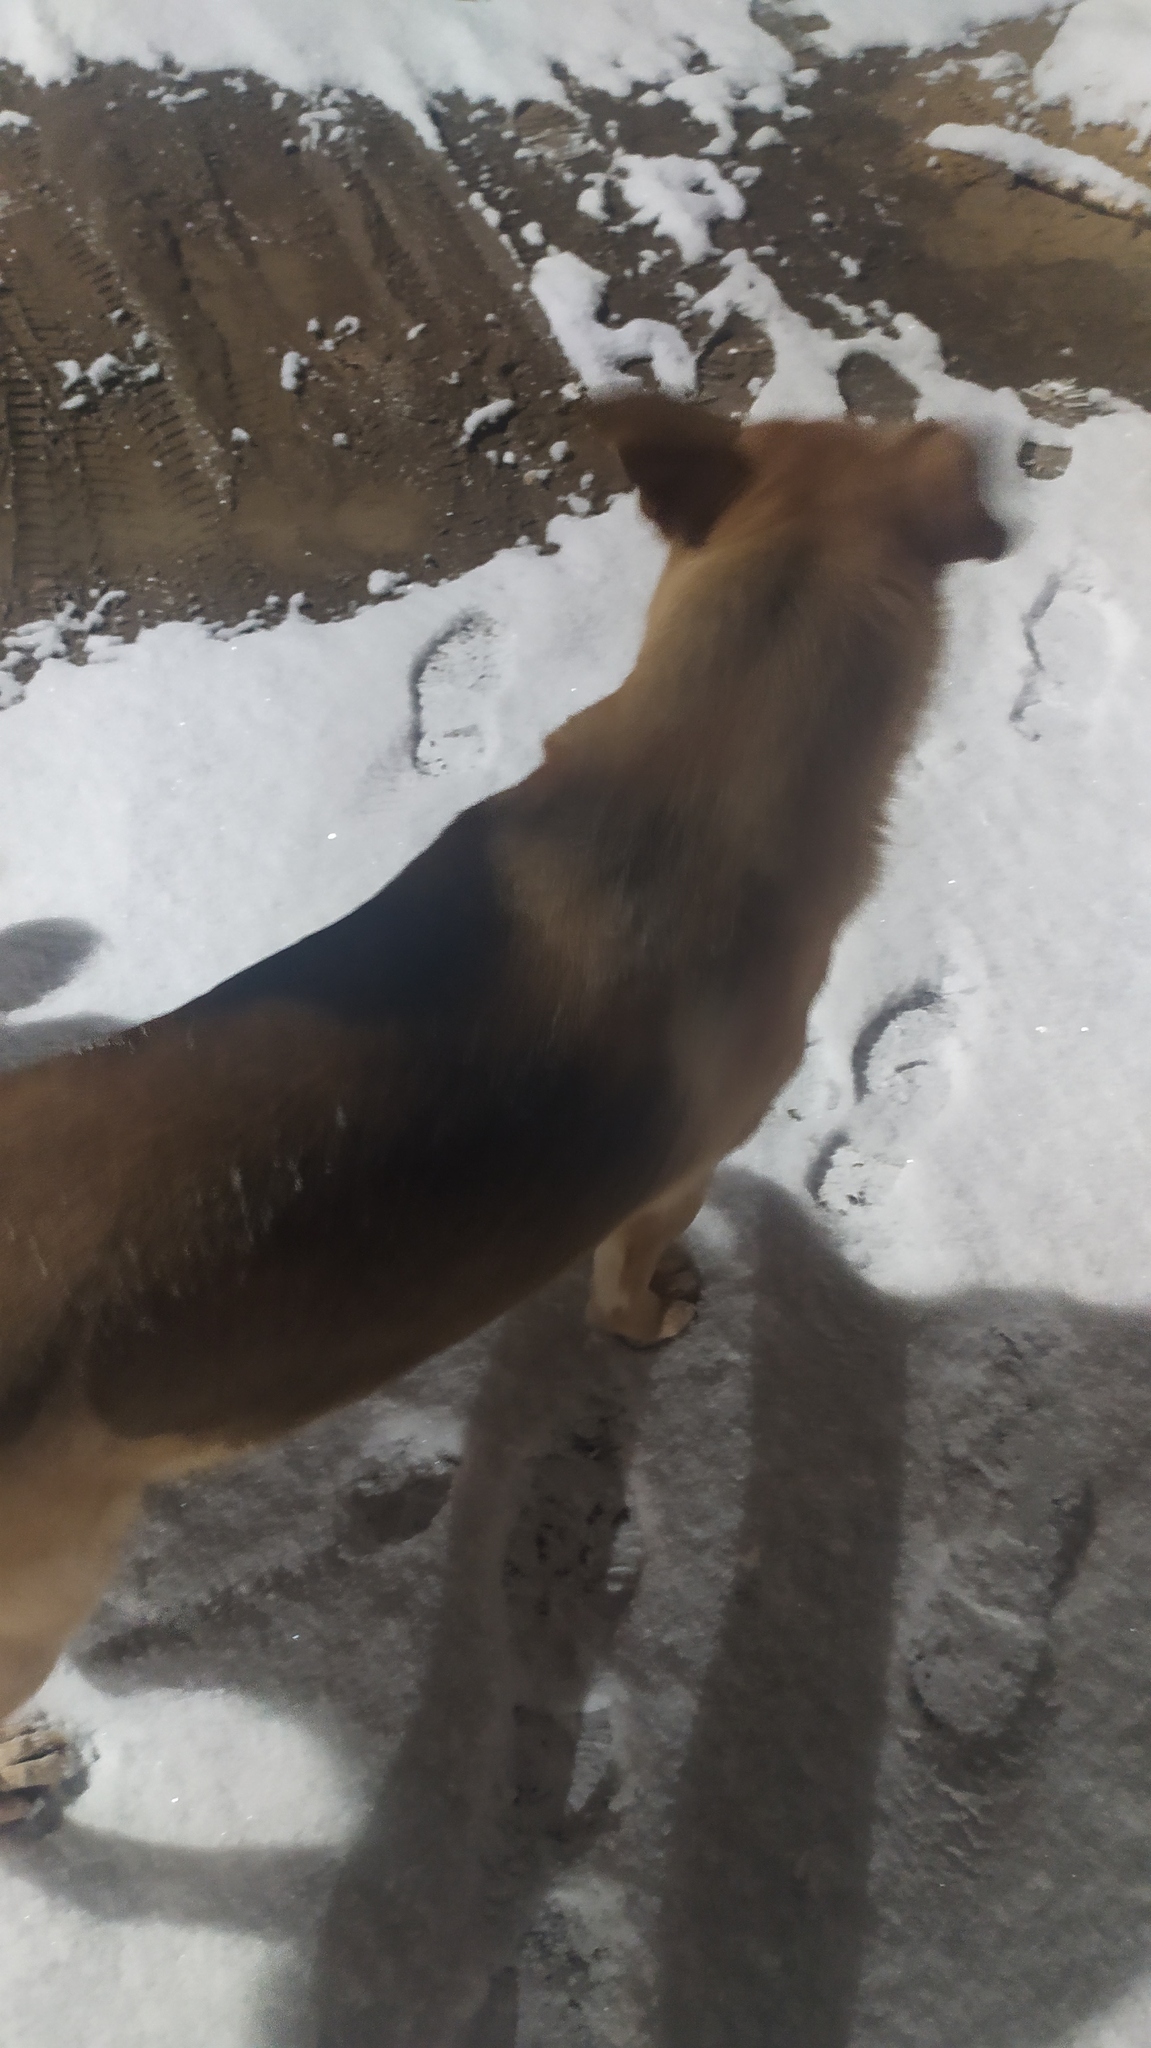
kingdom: Animalia
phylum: Chordata
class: Mammalia
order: Carnivora
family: Canidae
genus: Canis
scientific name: Canis lupus
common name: Gray wolf
